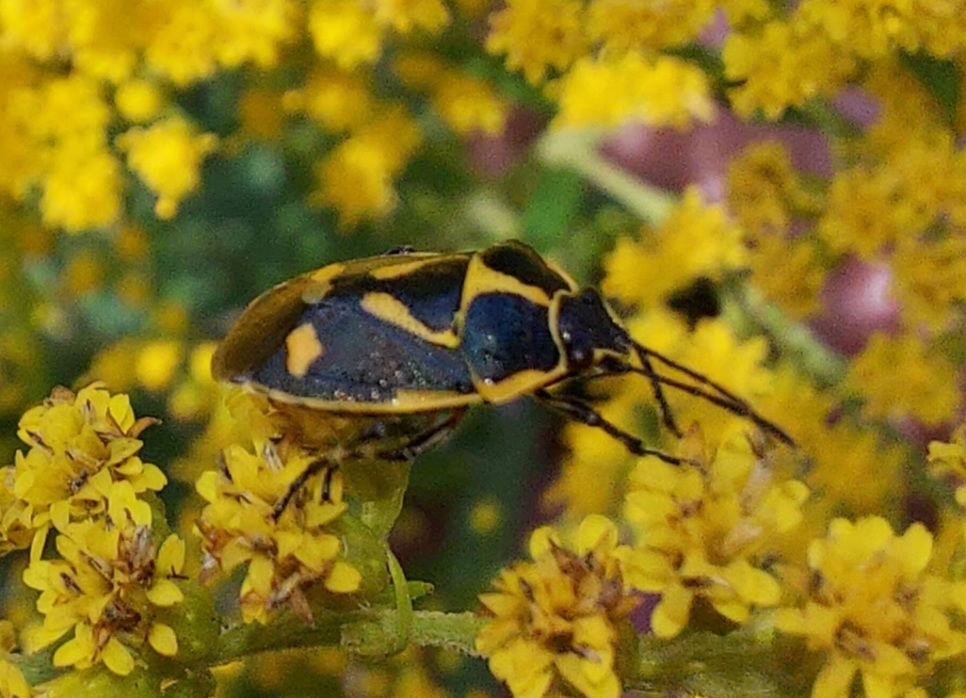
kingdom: Animalia
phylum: Arthropoda
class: Insecta
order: Hemiptera
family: Pentatomidae
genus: Eurydema
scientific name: Eurydema oleracea
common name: Cabbage bug
